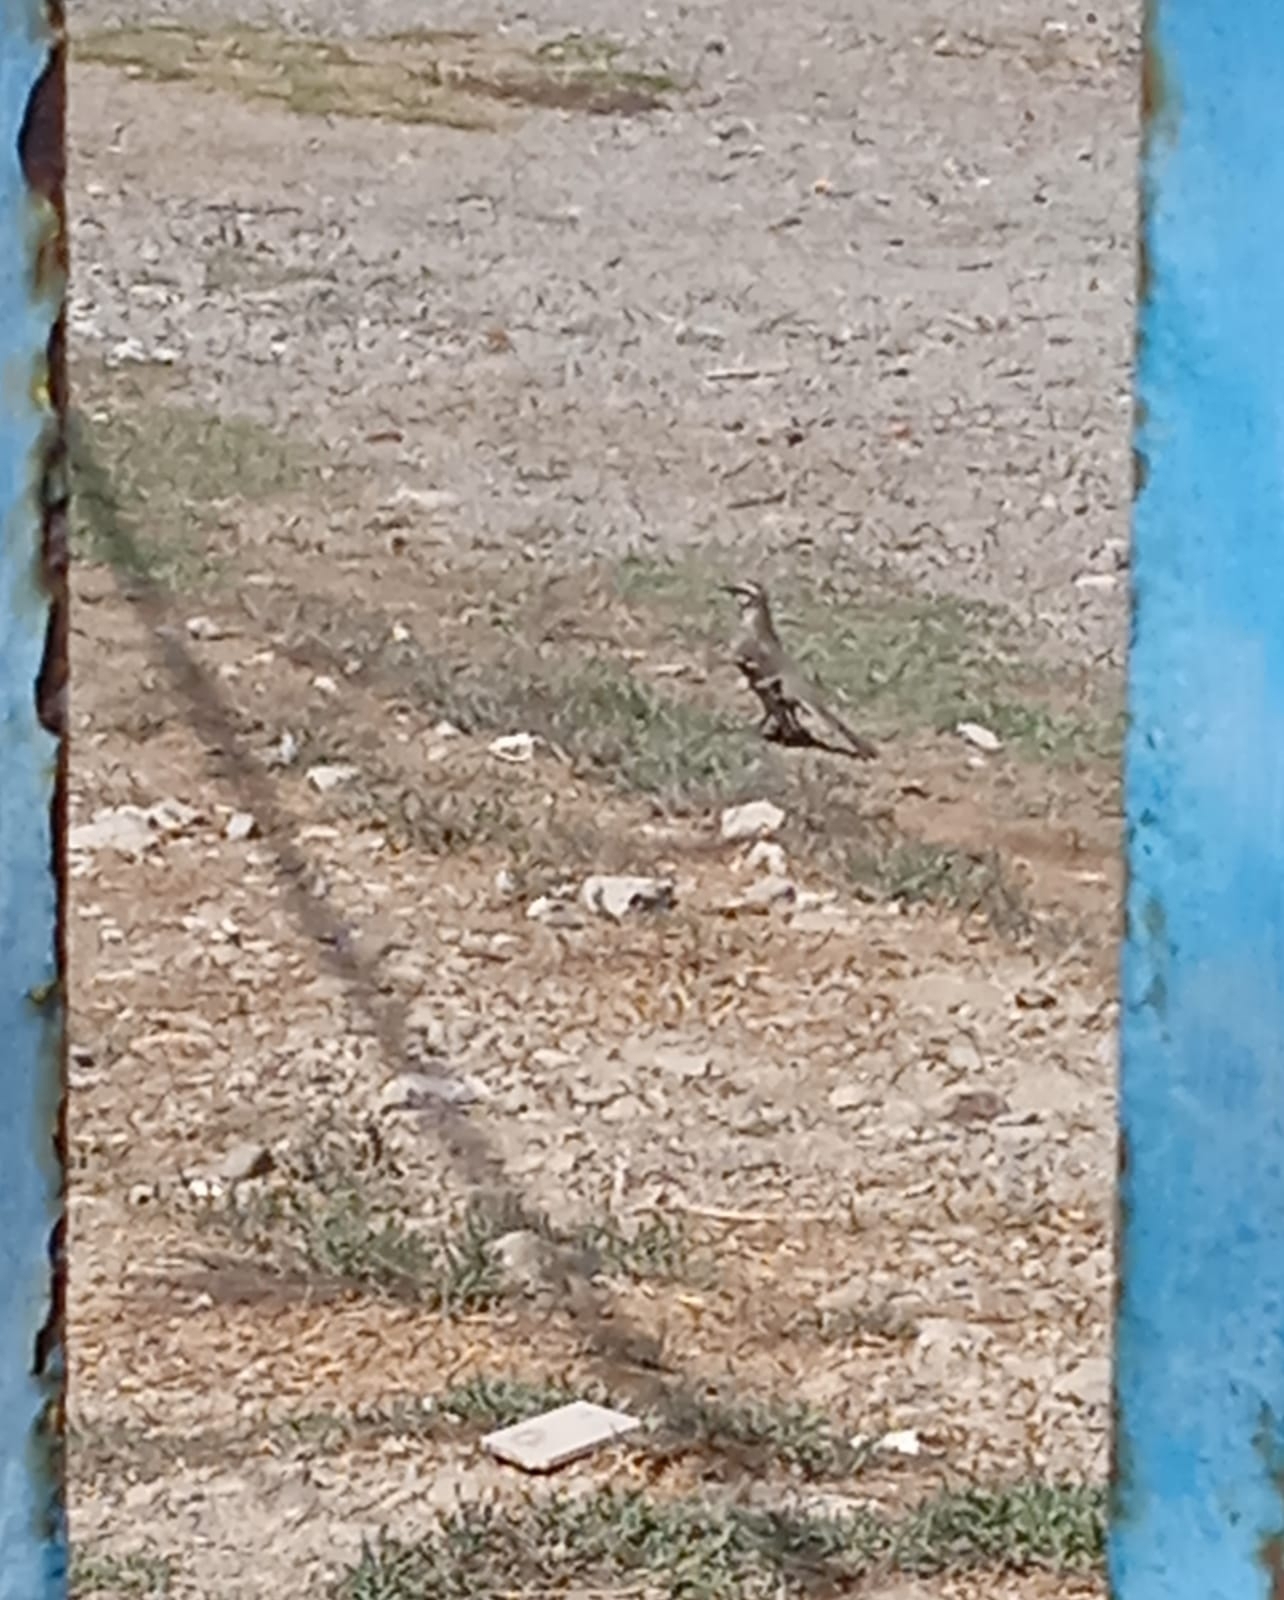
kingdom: Animalia
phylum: Chordata
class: Aves
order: Passeriformes
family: Mimidae
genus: Mimus
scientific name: Mimus longicaudatus
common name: Long-tailed mockingbird
